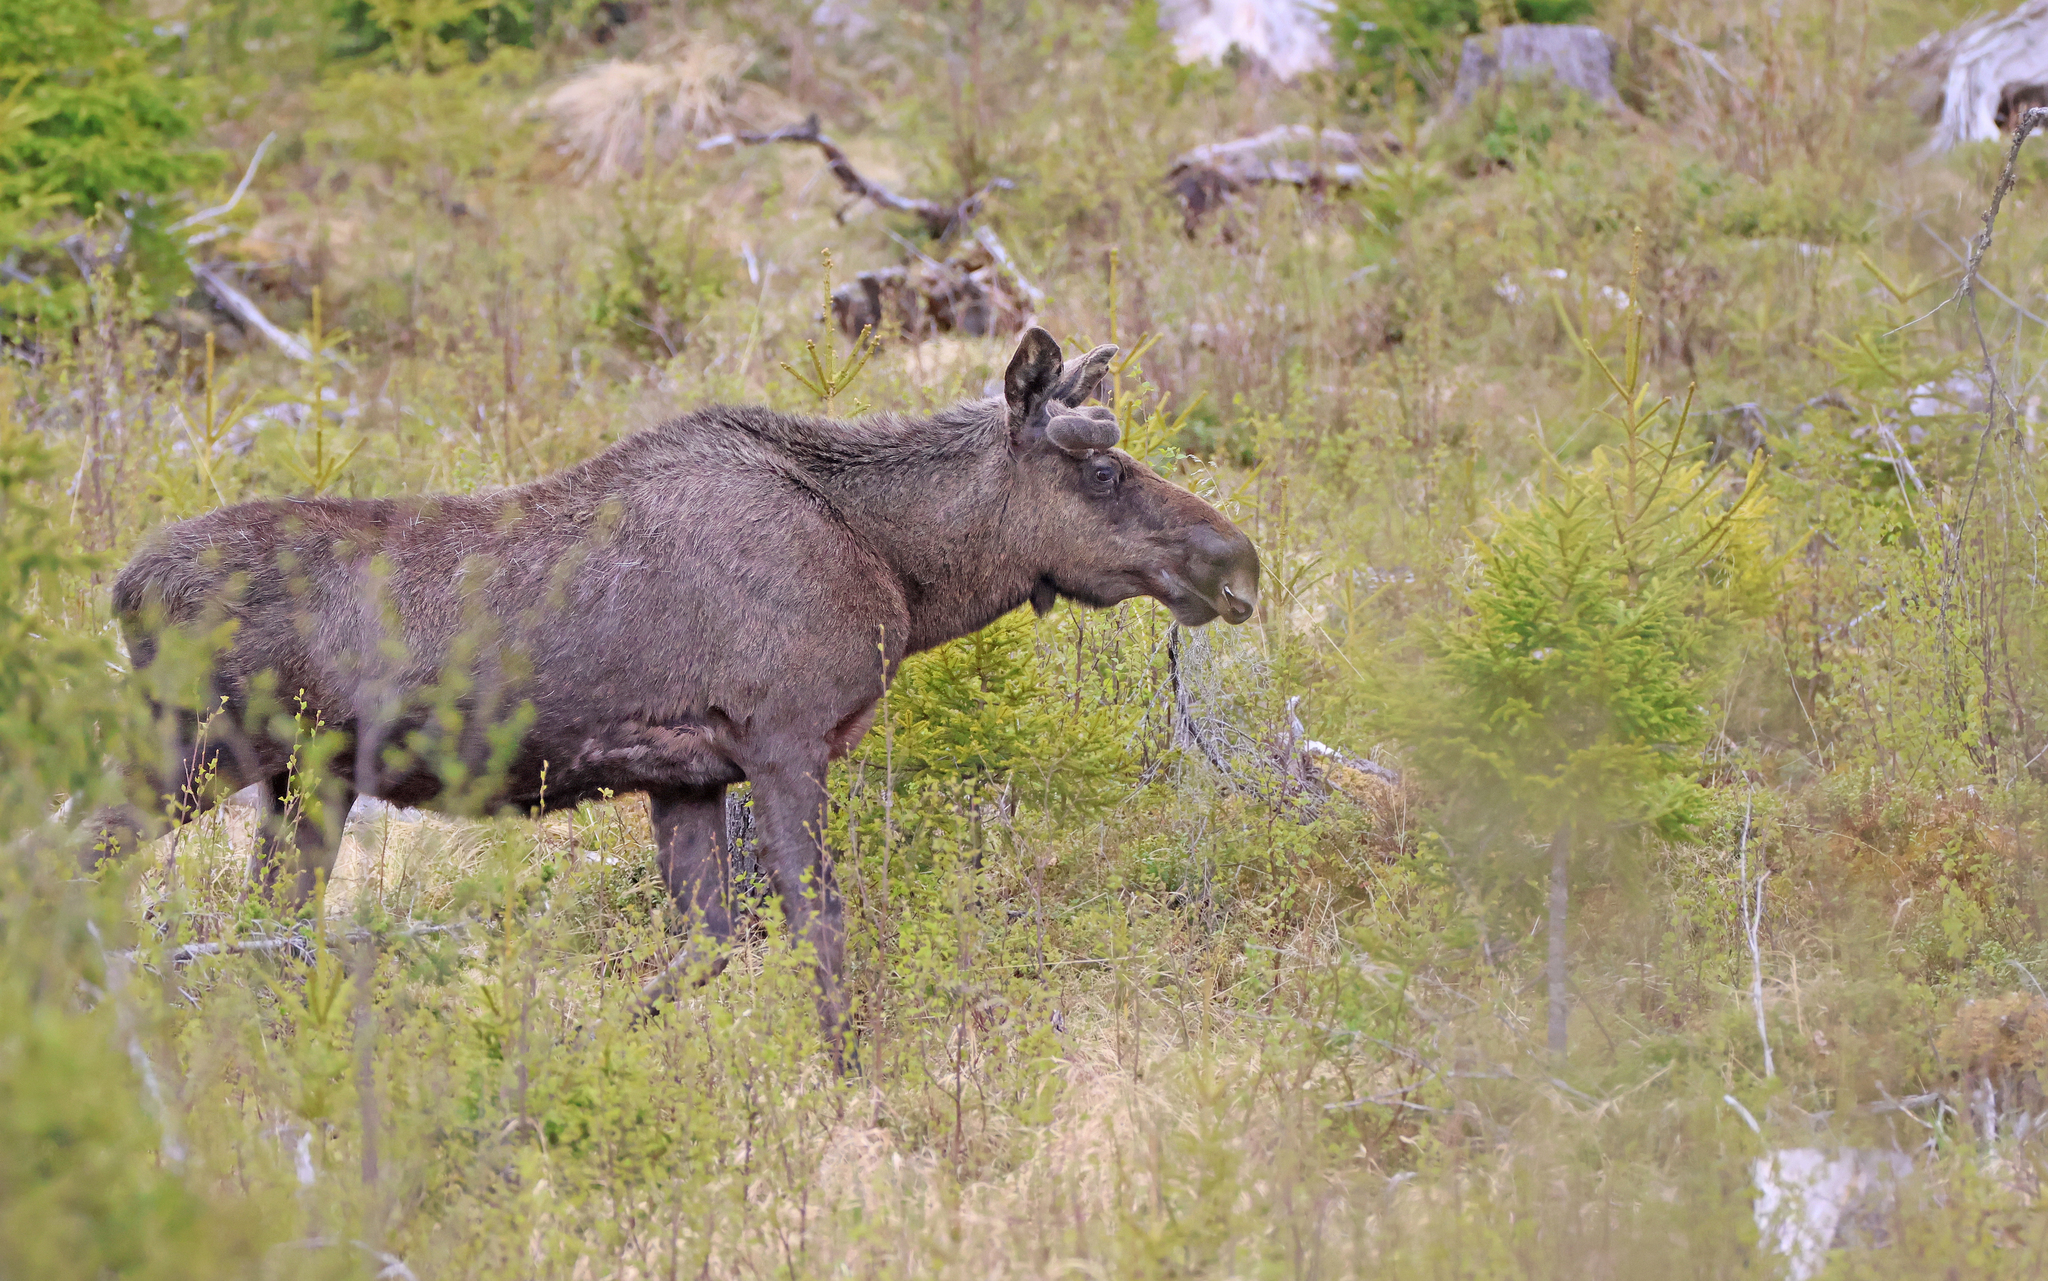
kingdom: Animalia
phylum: Chordata
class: Mammalia
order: Artiodactyla
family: Cervidae
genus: Alces
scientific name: Alces alces
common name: Moose
